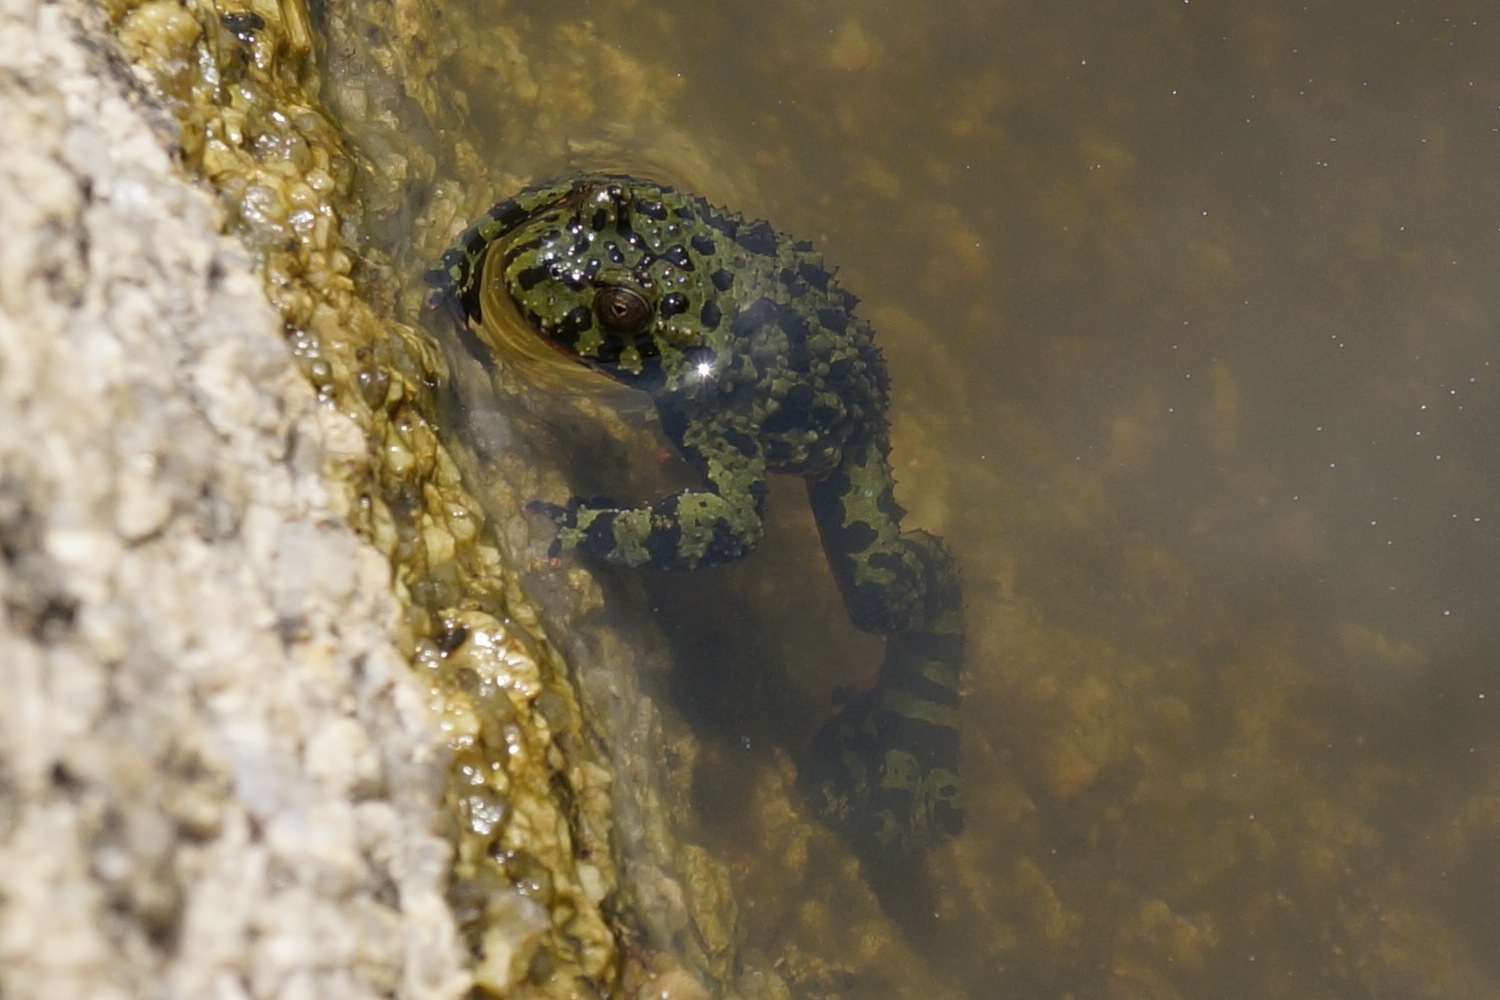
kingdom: Animalia
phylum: Chordata
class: Amphibia
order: Anura
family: Bombinatoridae
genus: Bombina
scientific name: Bombina orientalis
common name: Oriental firebelly toad
